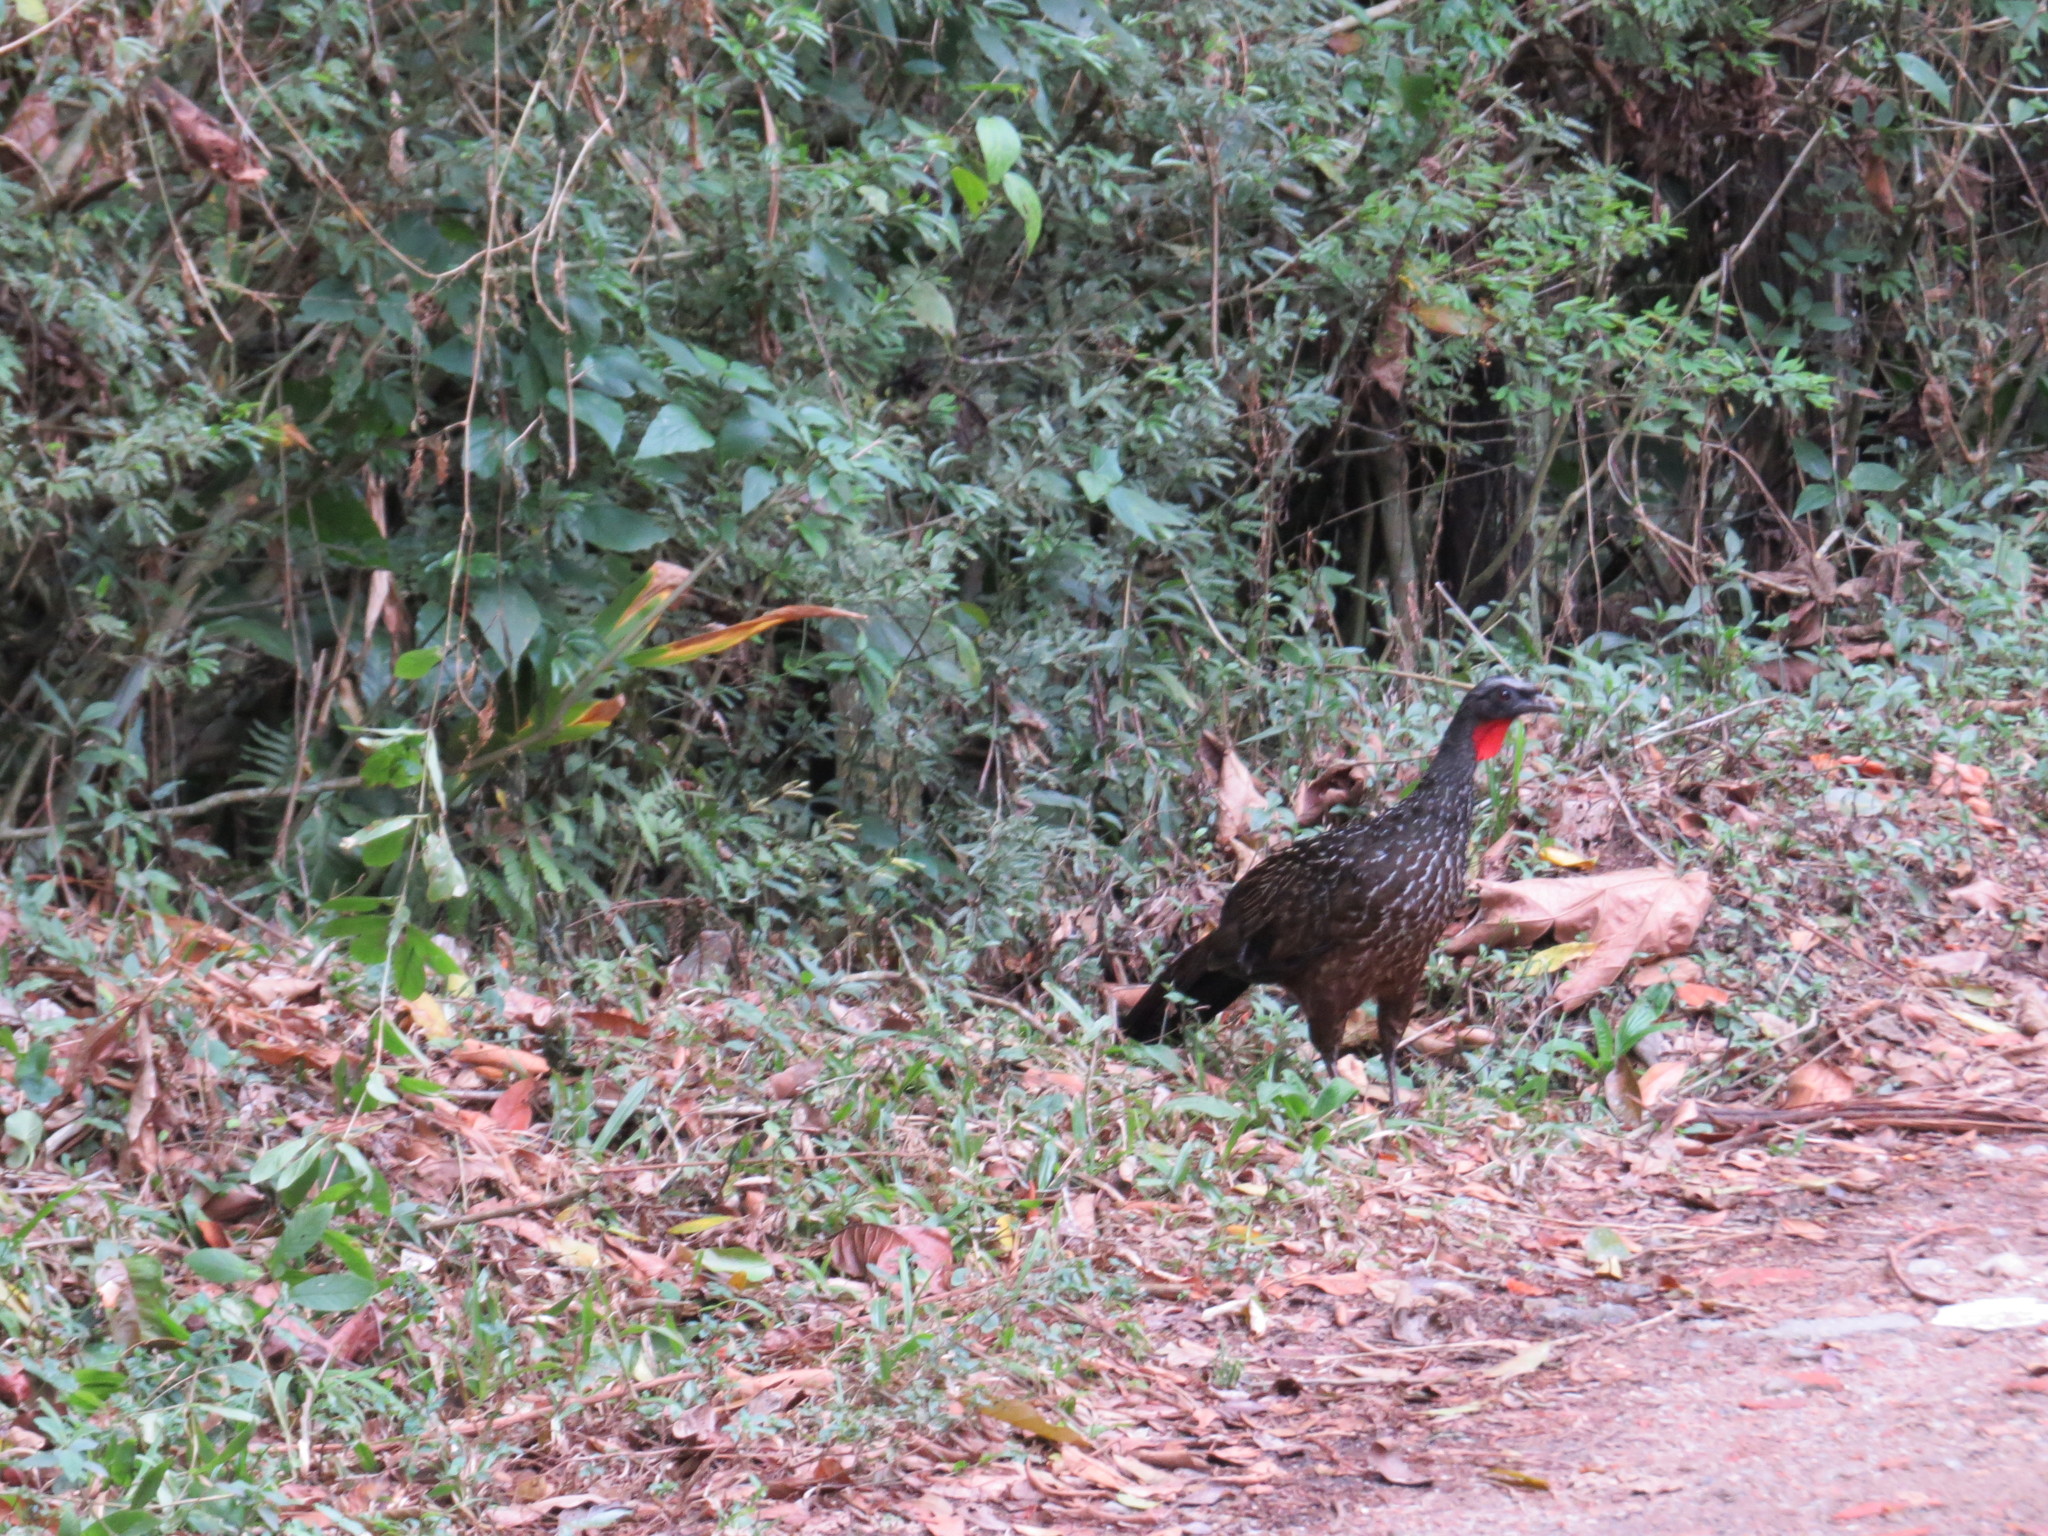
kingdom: Animalia
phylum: Chordata
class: Aves
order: Galliformes
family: Cracidae
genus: Penelope
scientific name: Penelope obscura
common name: Dusky-legged guan
